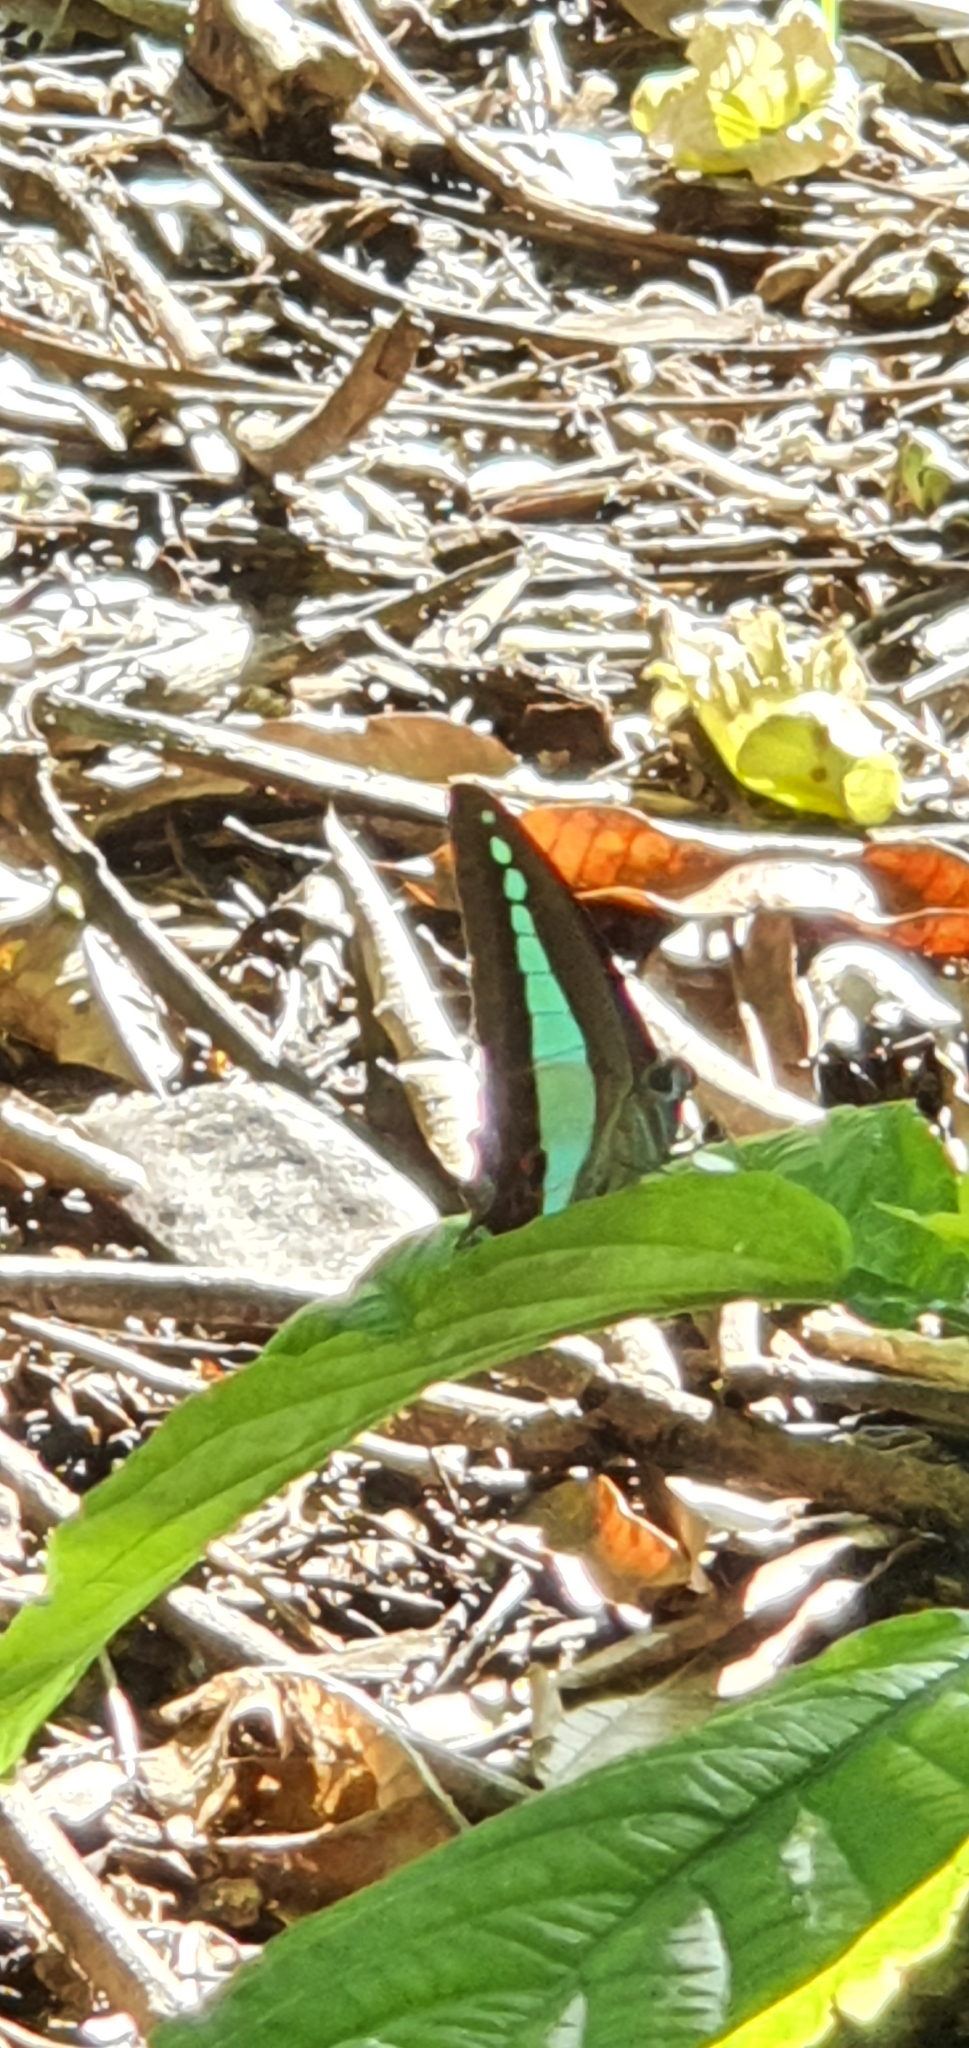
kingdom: Animalia
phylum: Arthropoda
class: Insecta
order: Lepidoptera
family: Papilionidae
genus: Graphium
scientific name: Graphium
